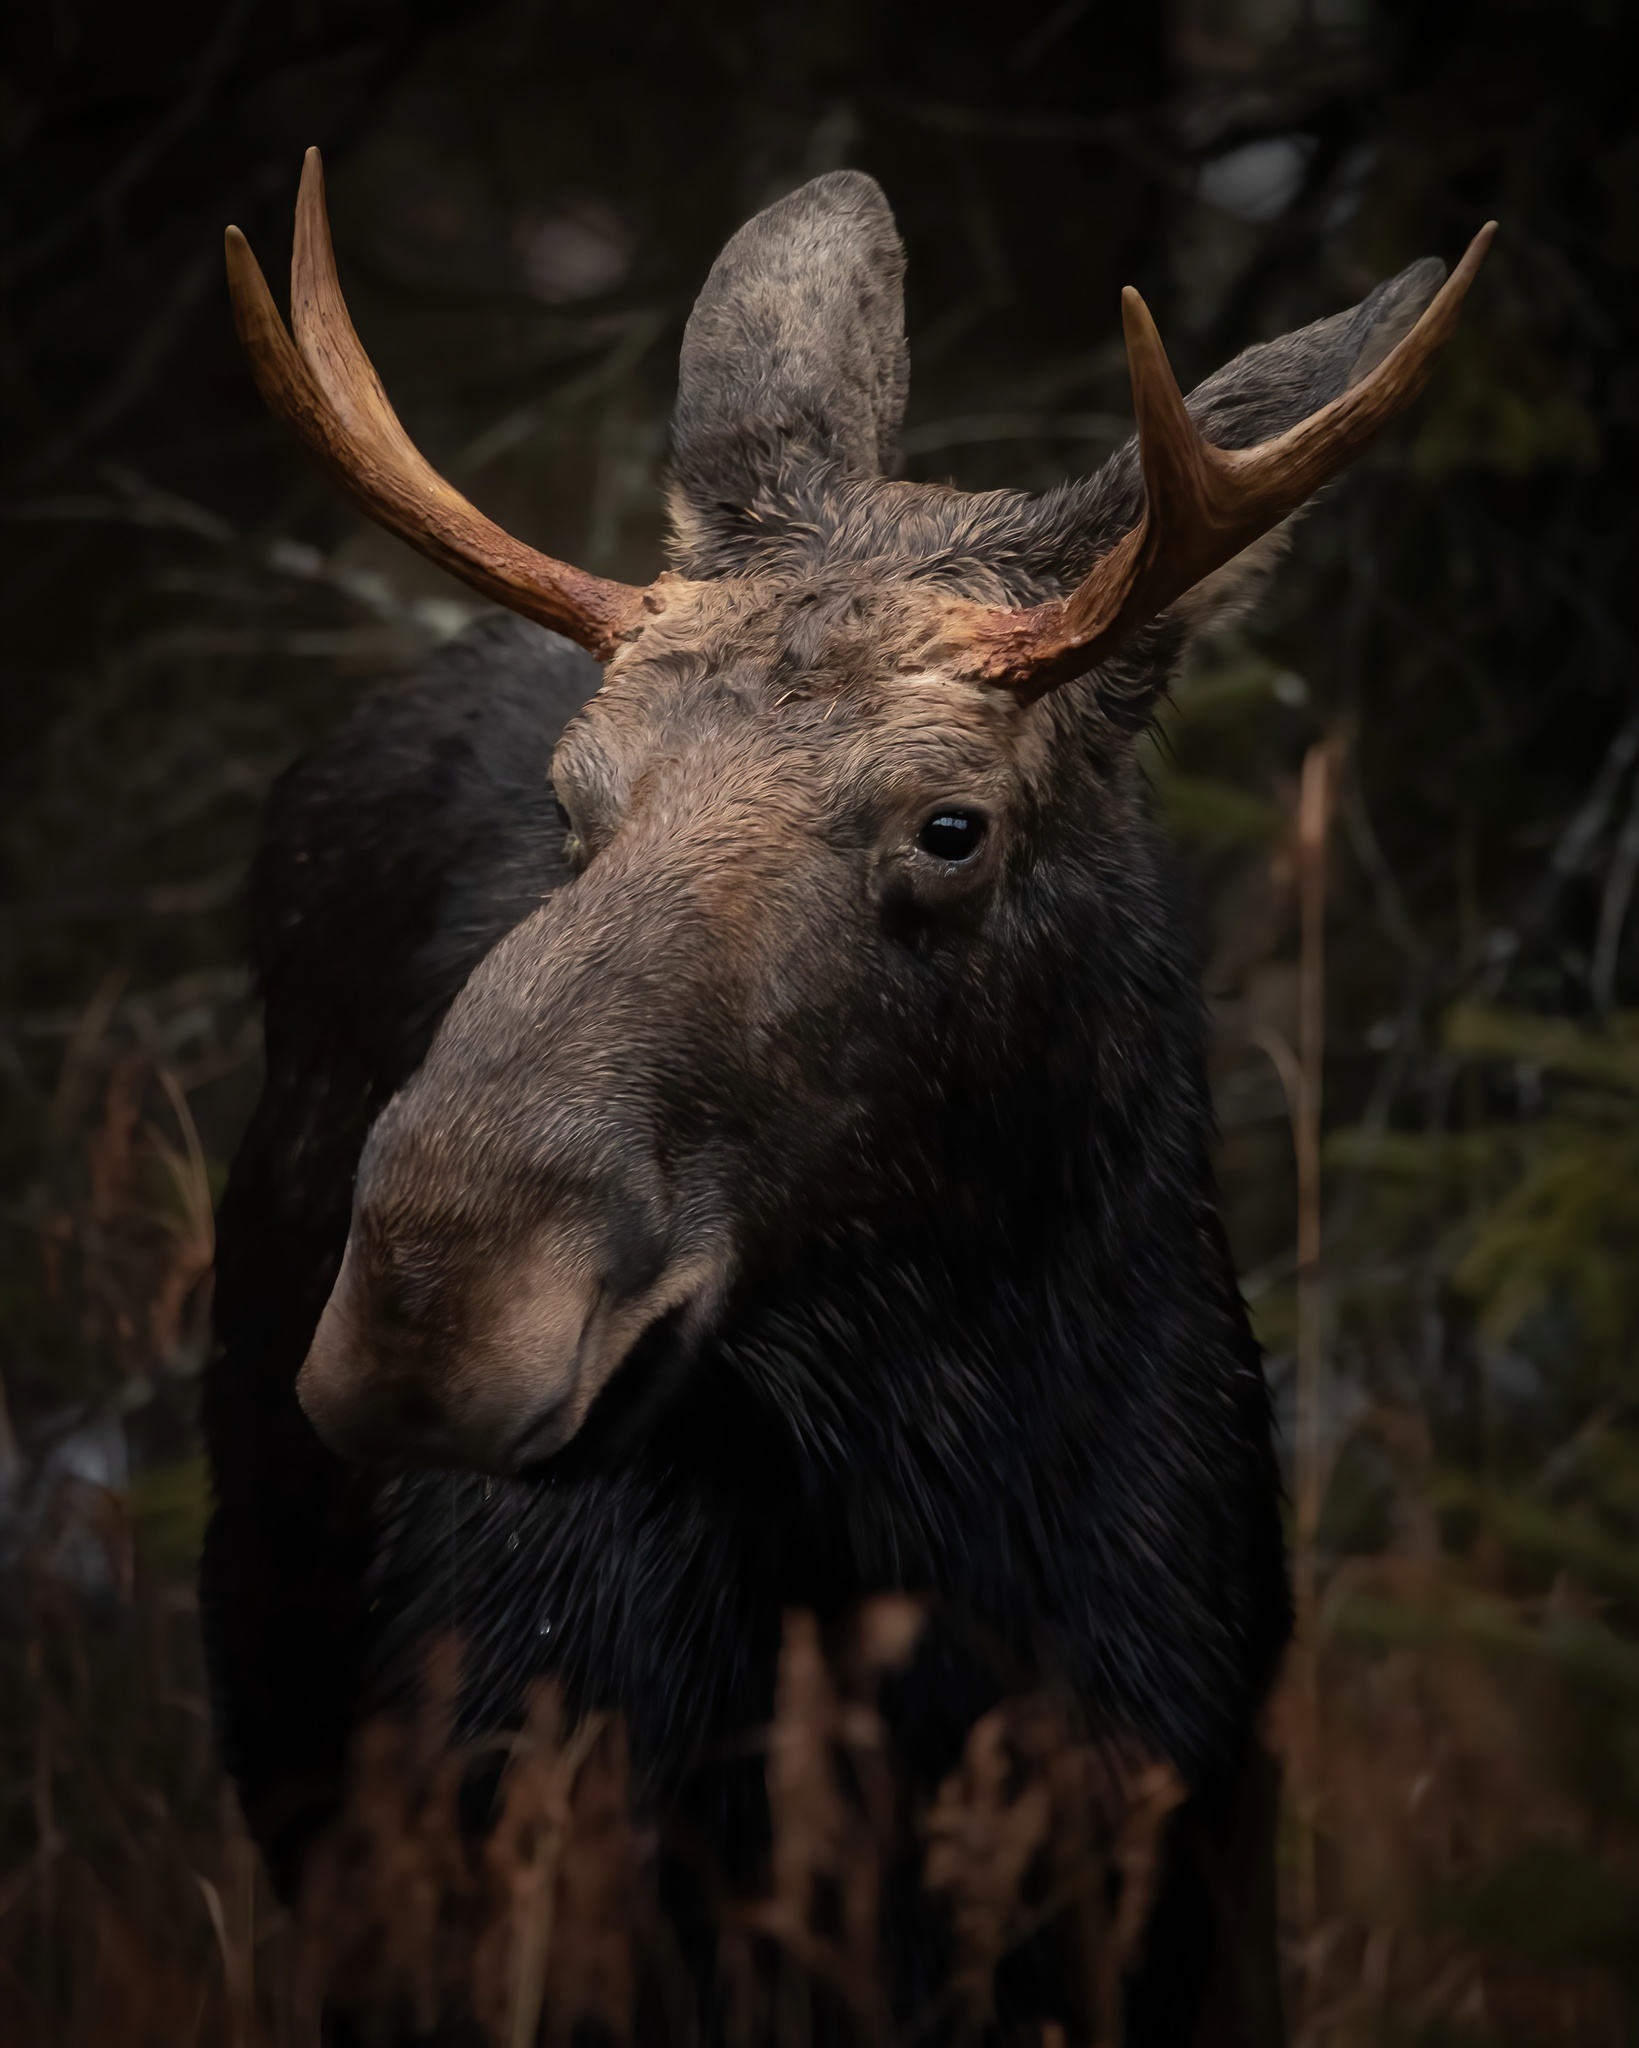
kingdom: Animalia
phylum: Chordata
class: Mammalia
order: Artiodactyla
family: Cervidae
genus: Alces
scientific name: Alces alces
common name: Moose
